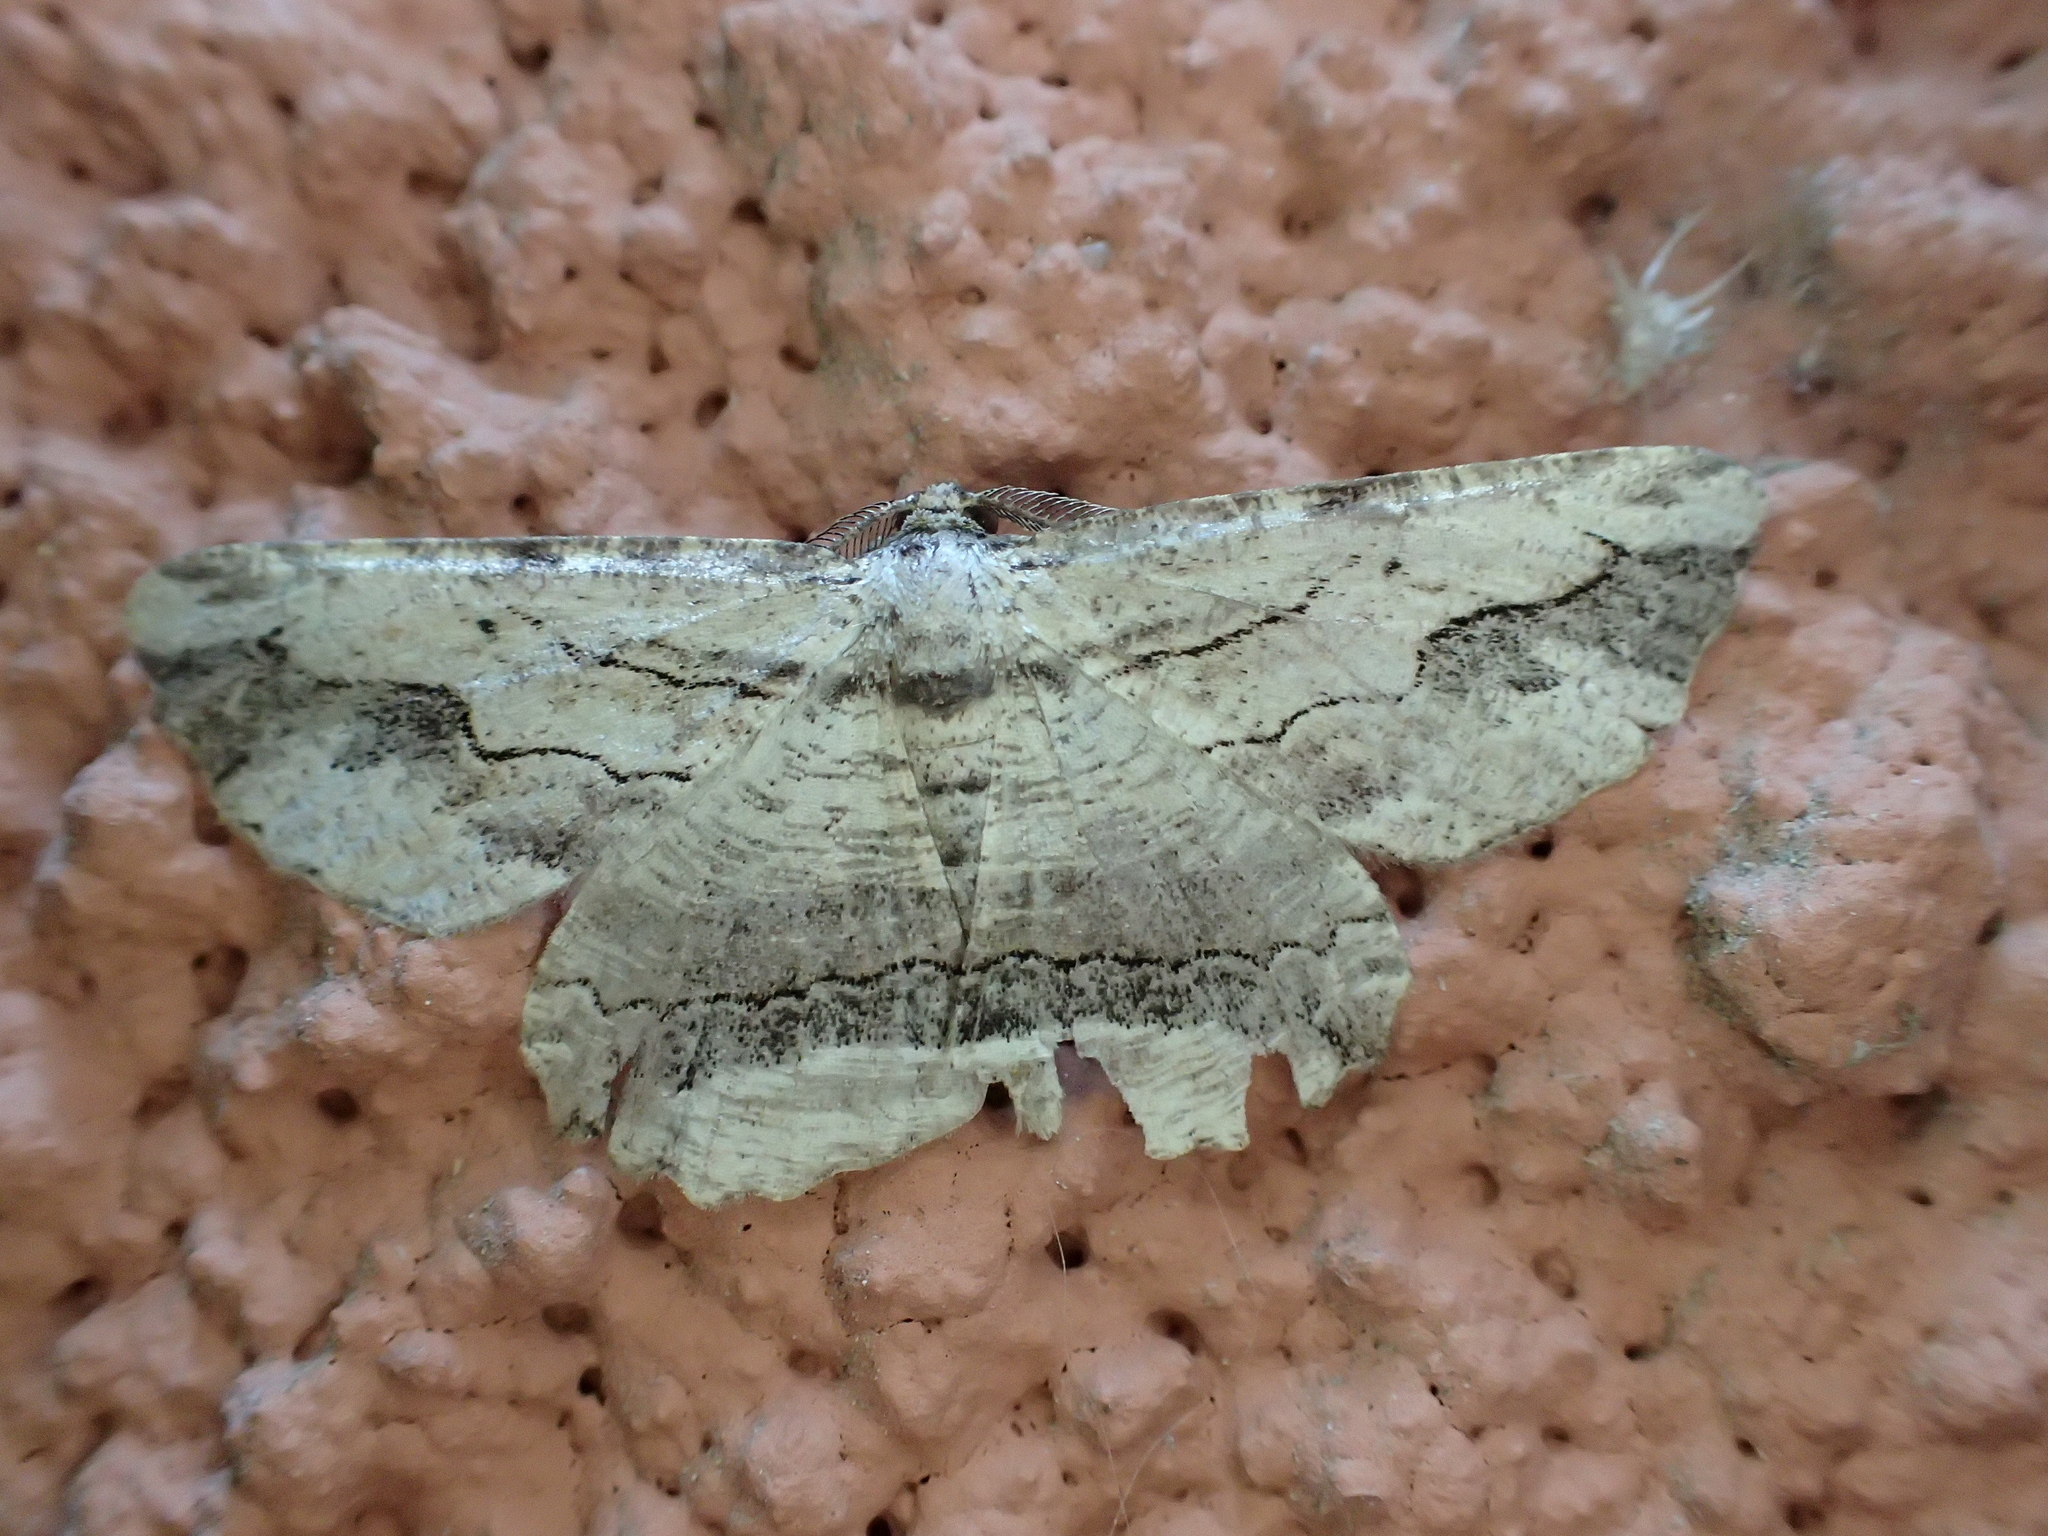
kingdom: Animalia
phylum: Arthropoda
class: Insecta
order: Lepidoptera
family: Geometridae
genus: Menophra
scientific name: Menophra abruptaria
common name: Waved umber
